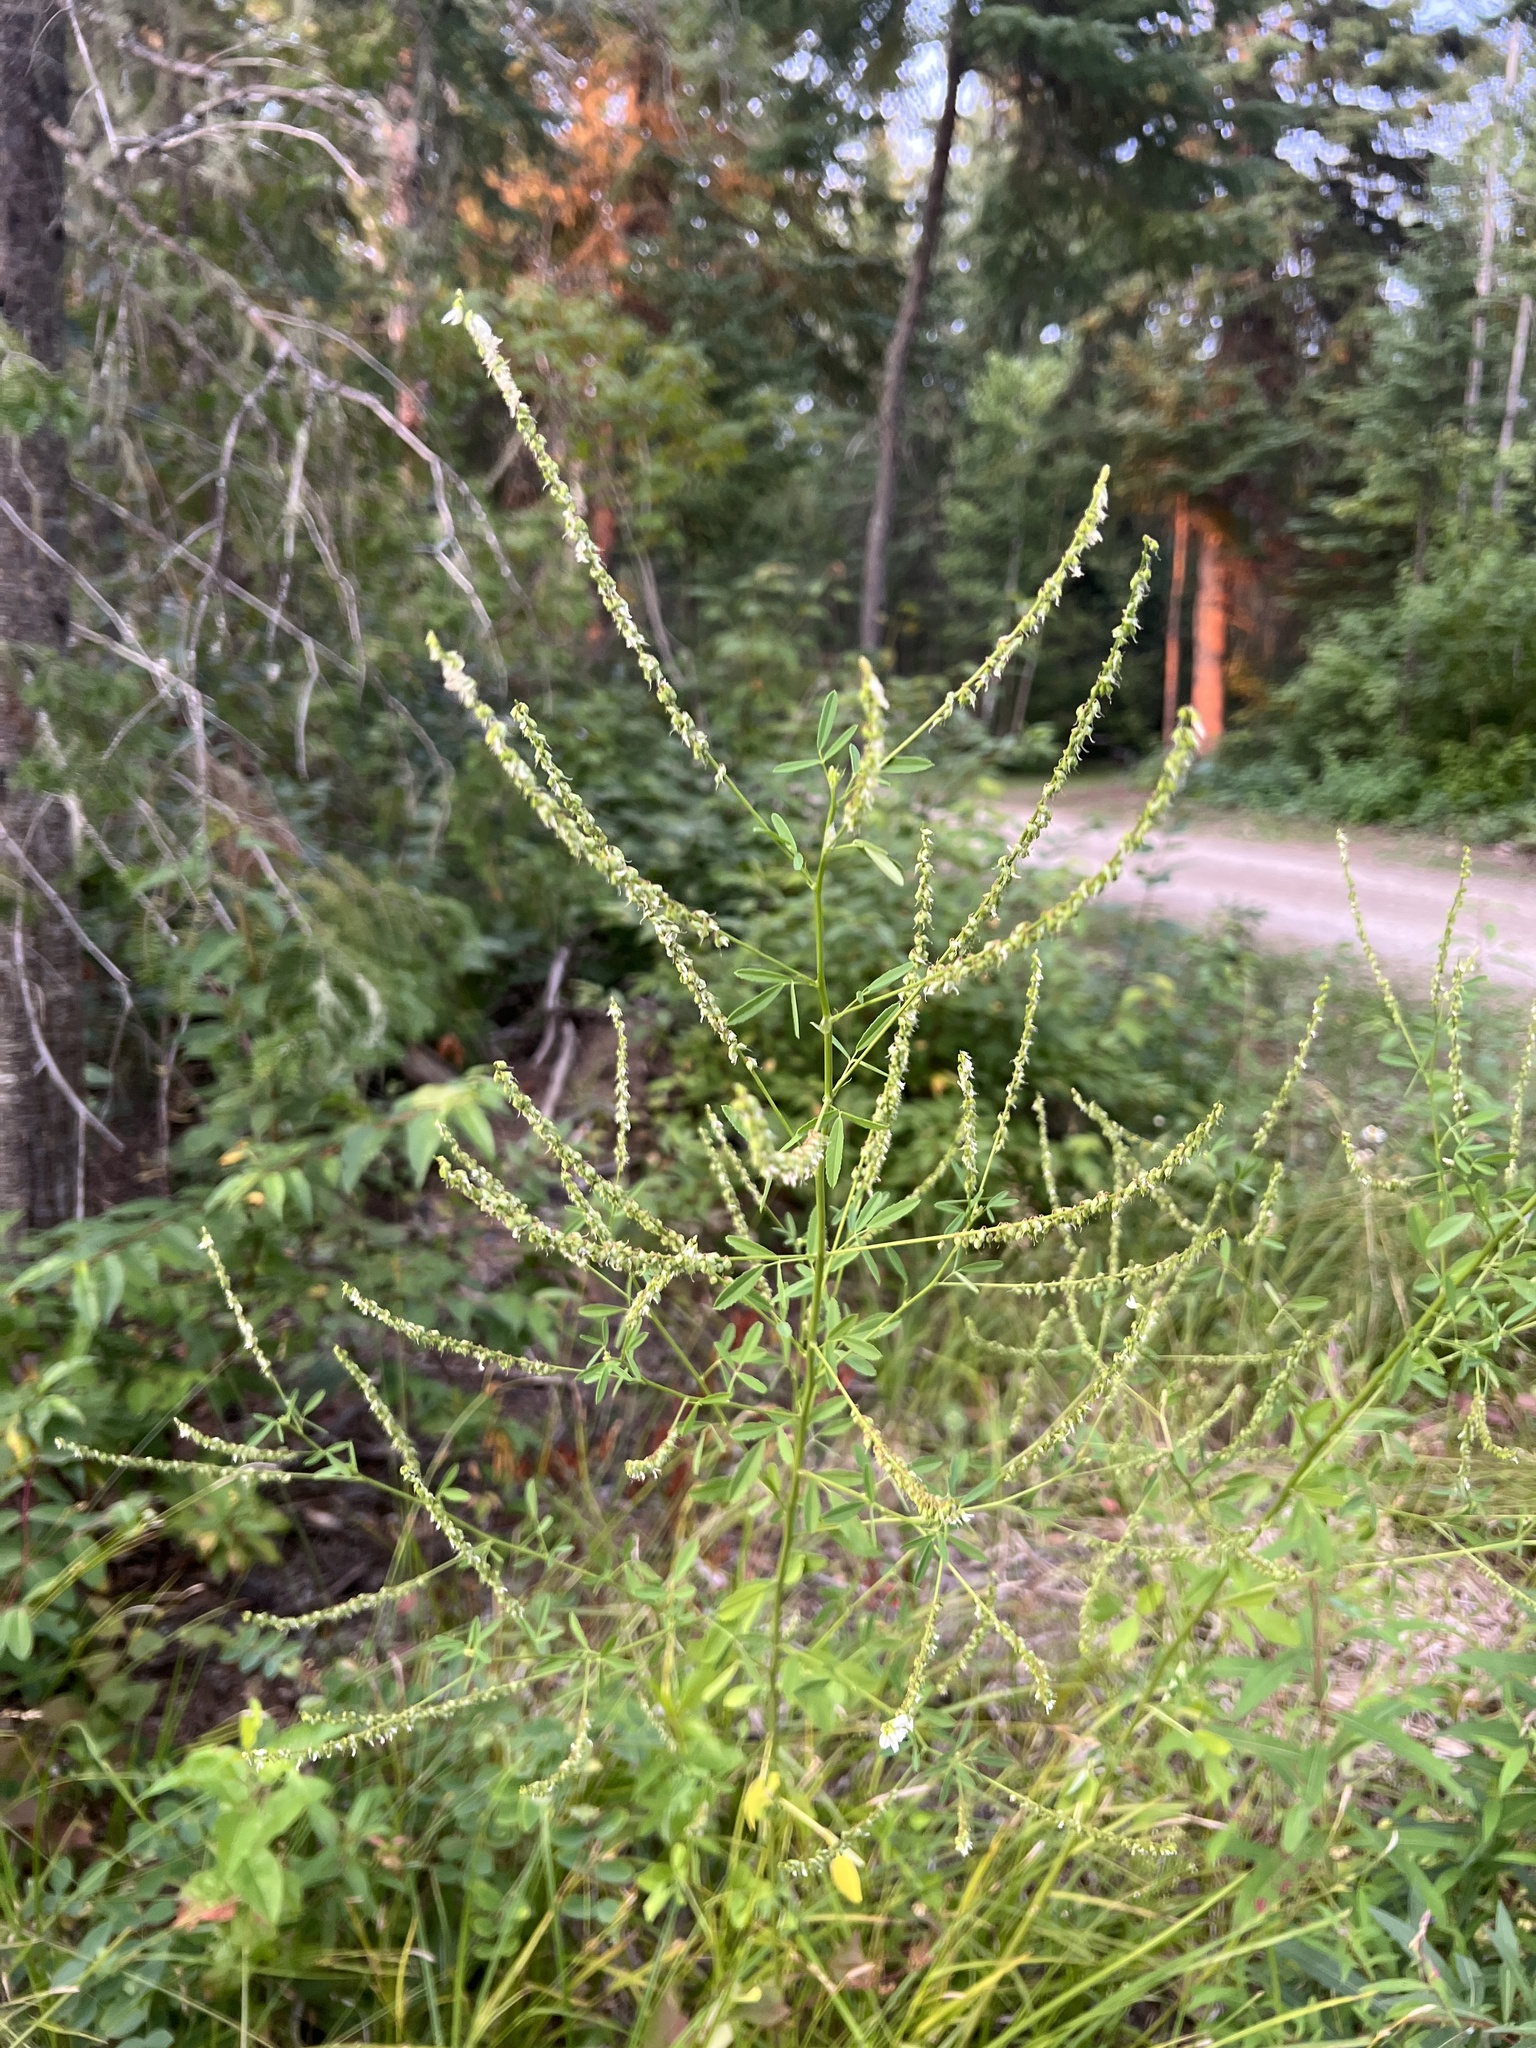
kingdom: Plantae
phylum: Tracheophyta
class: Magnoliopsida
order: Fabales
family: Fabaceae
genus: Melilotus
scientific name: Melilotus albus
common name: White melilot
